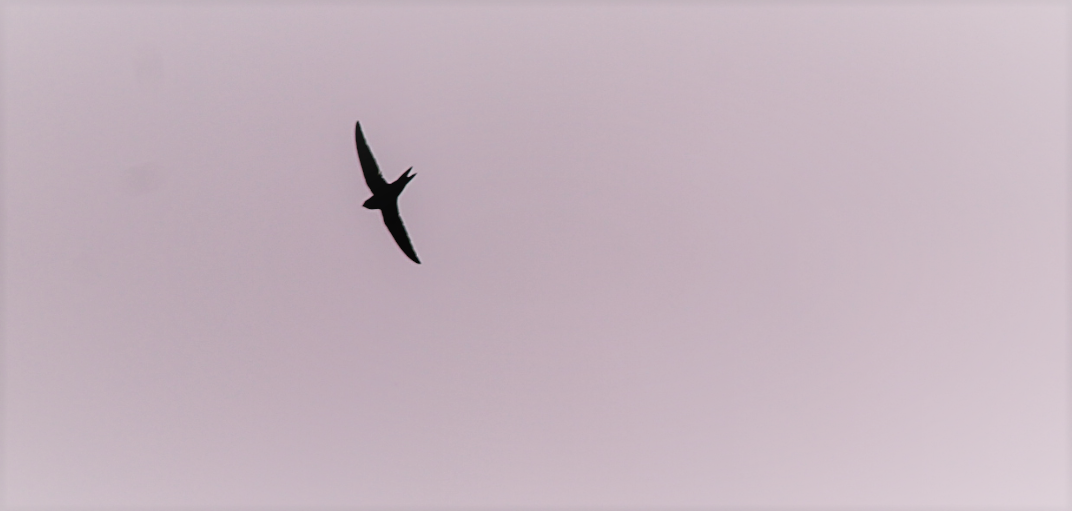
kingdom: Animalia
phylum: Chordata
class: Aves
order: Apodiformes
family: Apodidae
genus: Apus
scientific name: Apus apus
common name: Common swift
